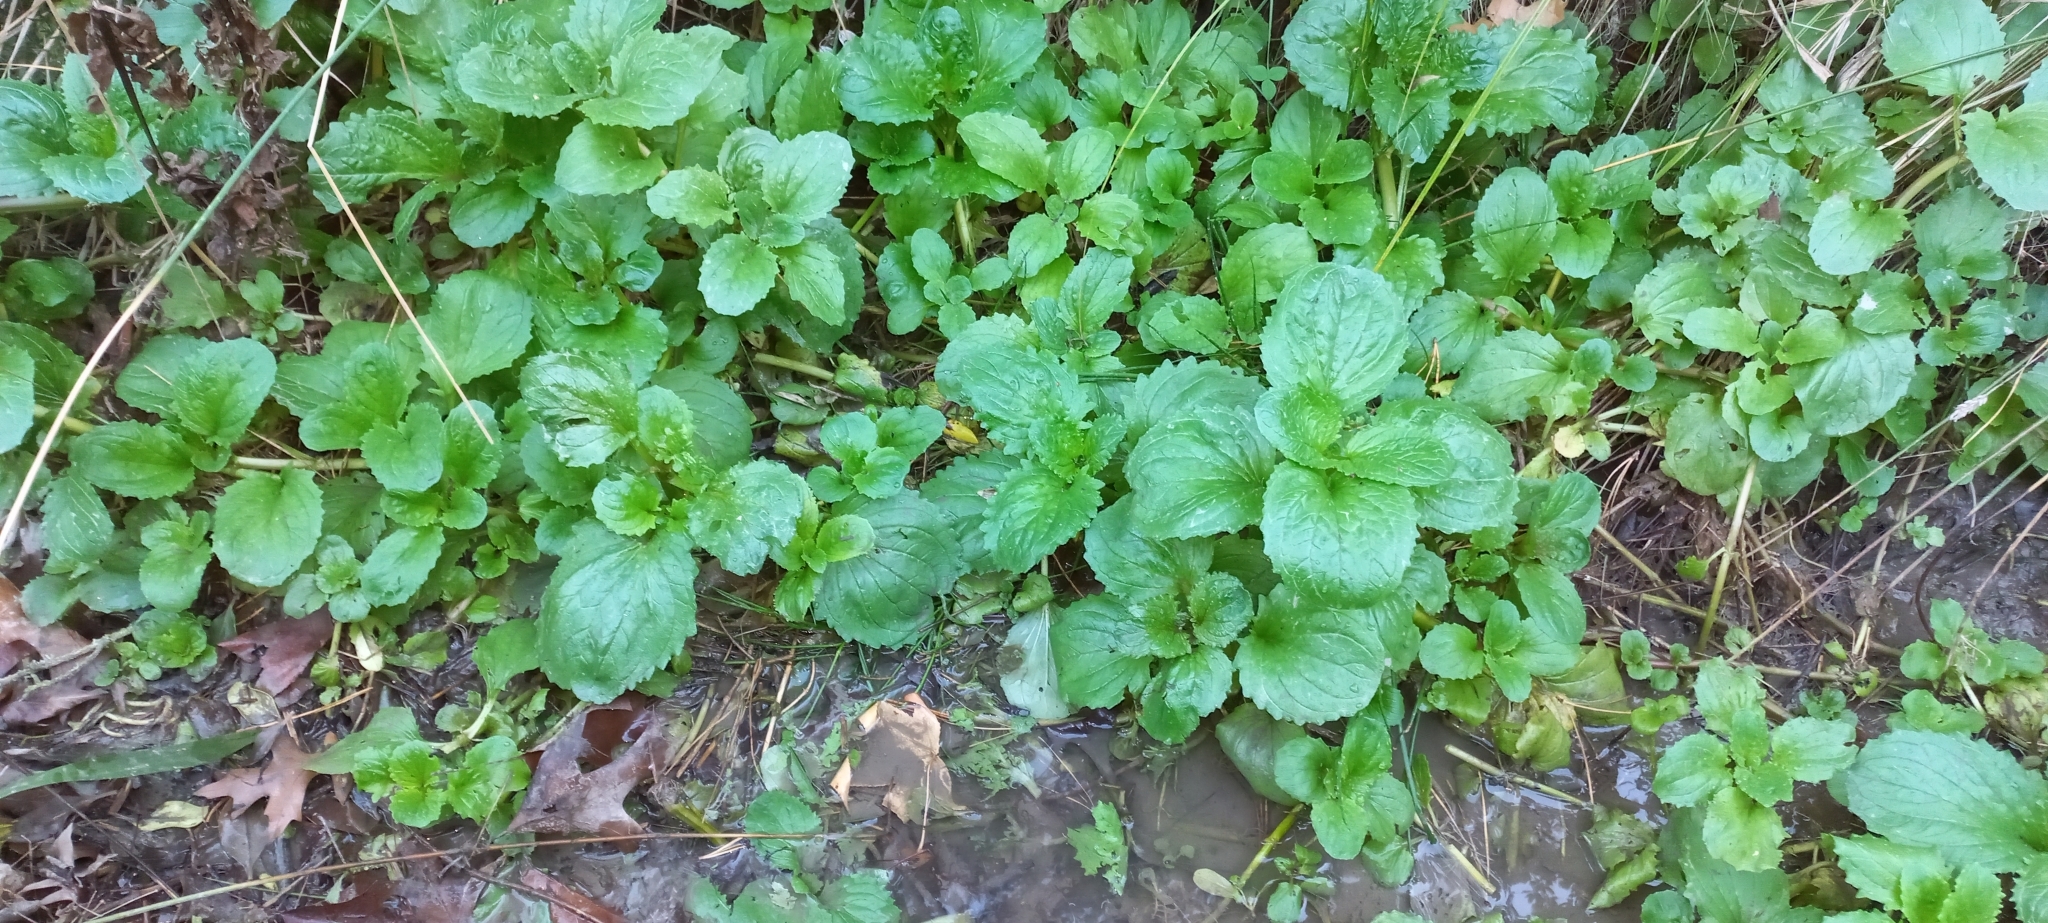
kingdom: Plantae
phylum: Tracheophyta
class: Magnoliopsida
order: Lamiales
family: Phrymaceae
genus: Erythranthe
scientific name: Erythranthe guttata
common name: Monkeyflower
